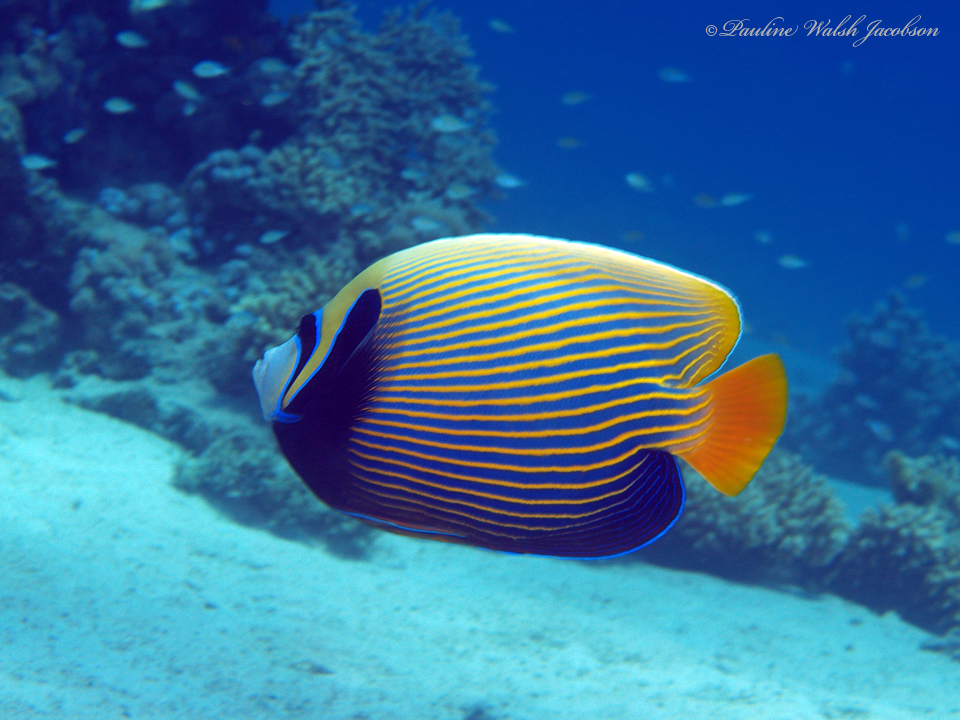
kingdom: Animalia
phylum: Chordata
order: Perciformes
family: Pomacanthidae
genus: Pomacanthus
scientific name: Pomacanthus imperator
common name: Emperor angelfish
